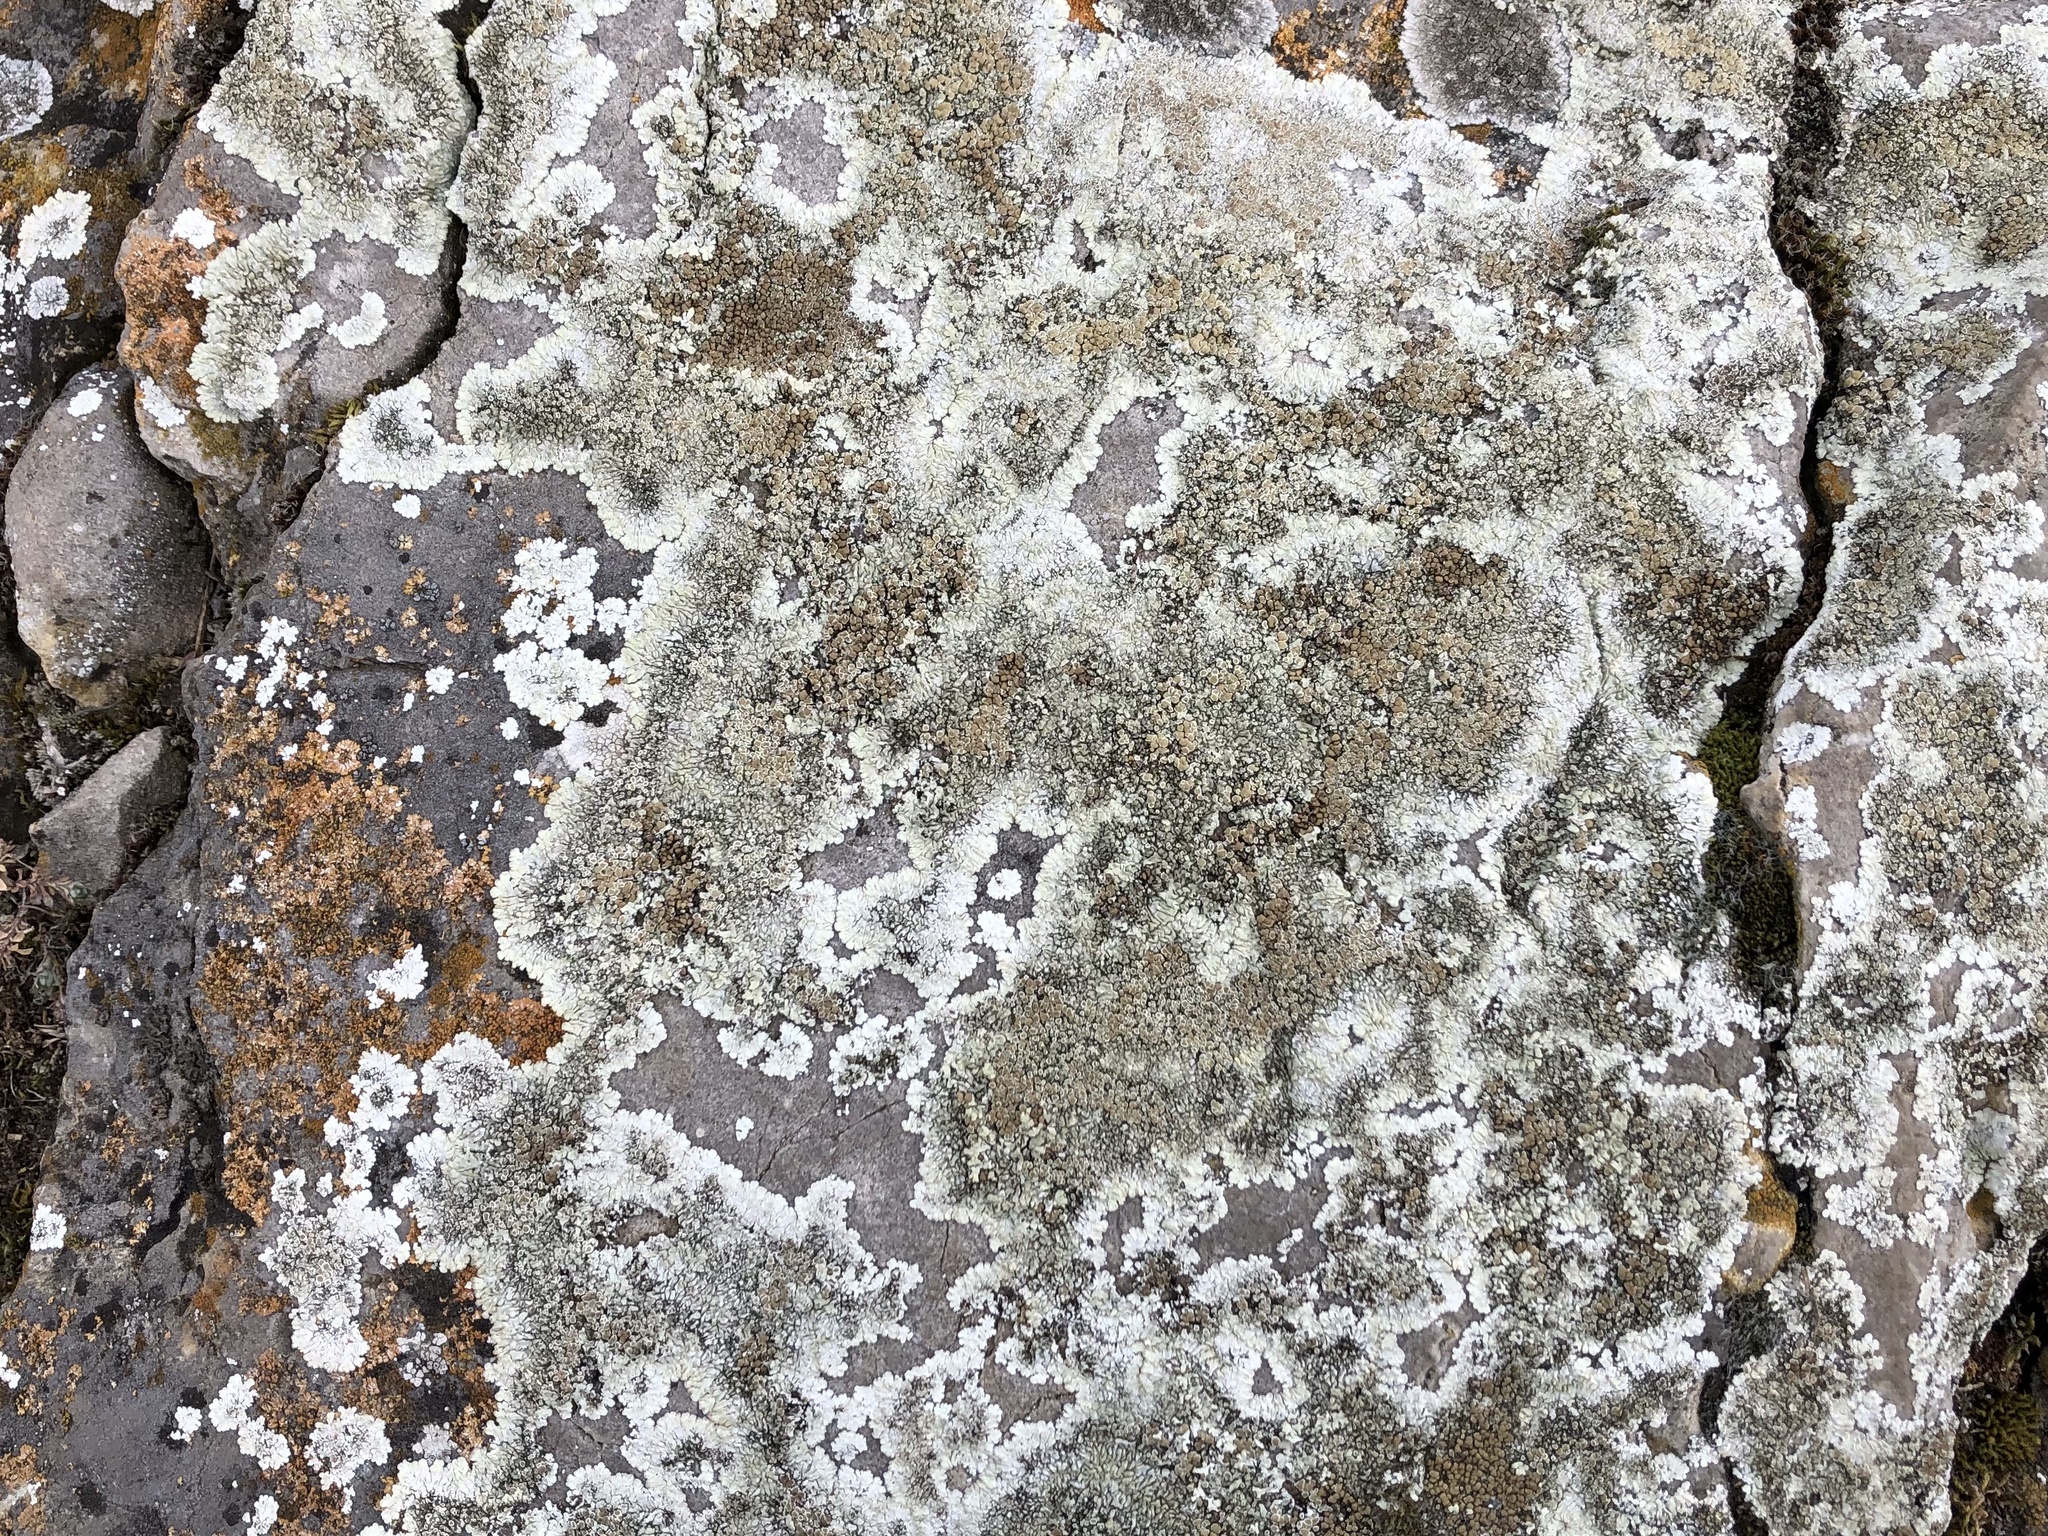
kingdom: Fungi
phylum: Ascomycota
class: Lecanoromycetes
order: Lecanorales
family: Lecanoraceae
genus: Protoparmeliopsis
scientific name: Protoparmeliopsis muralis
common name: Stonewall rim lichen
